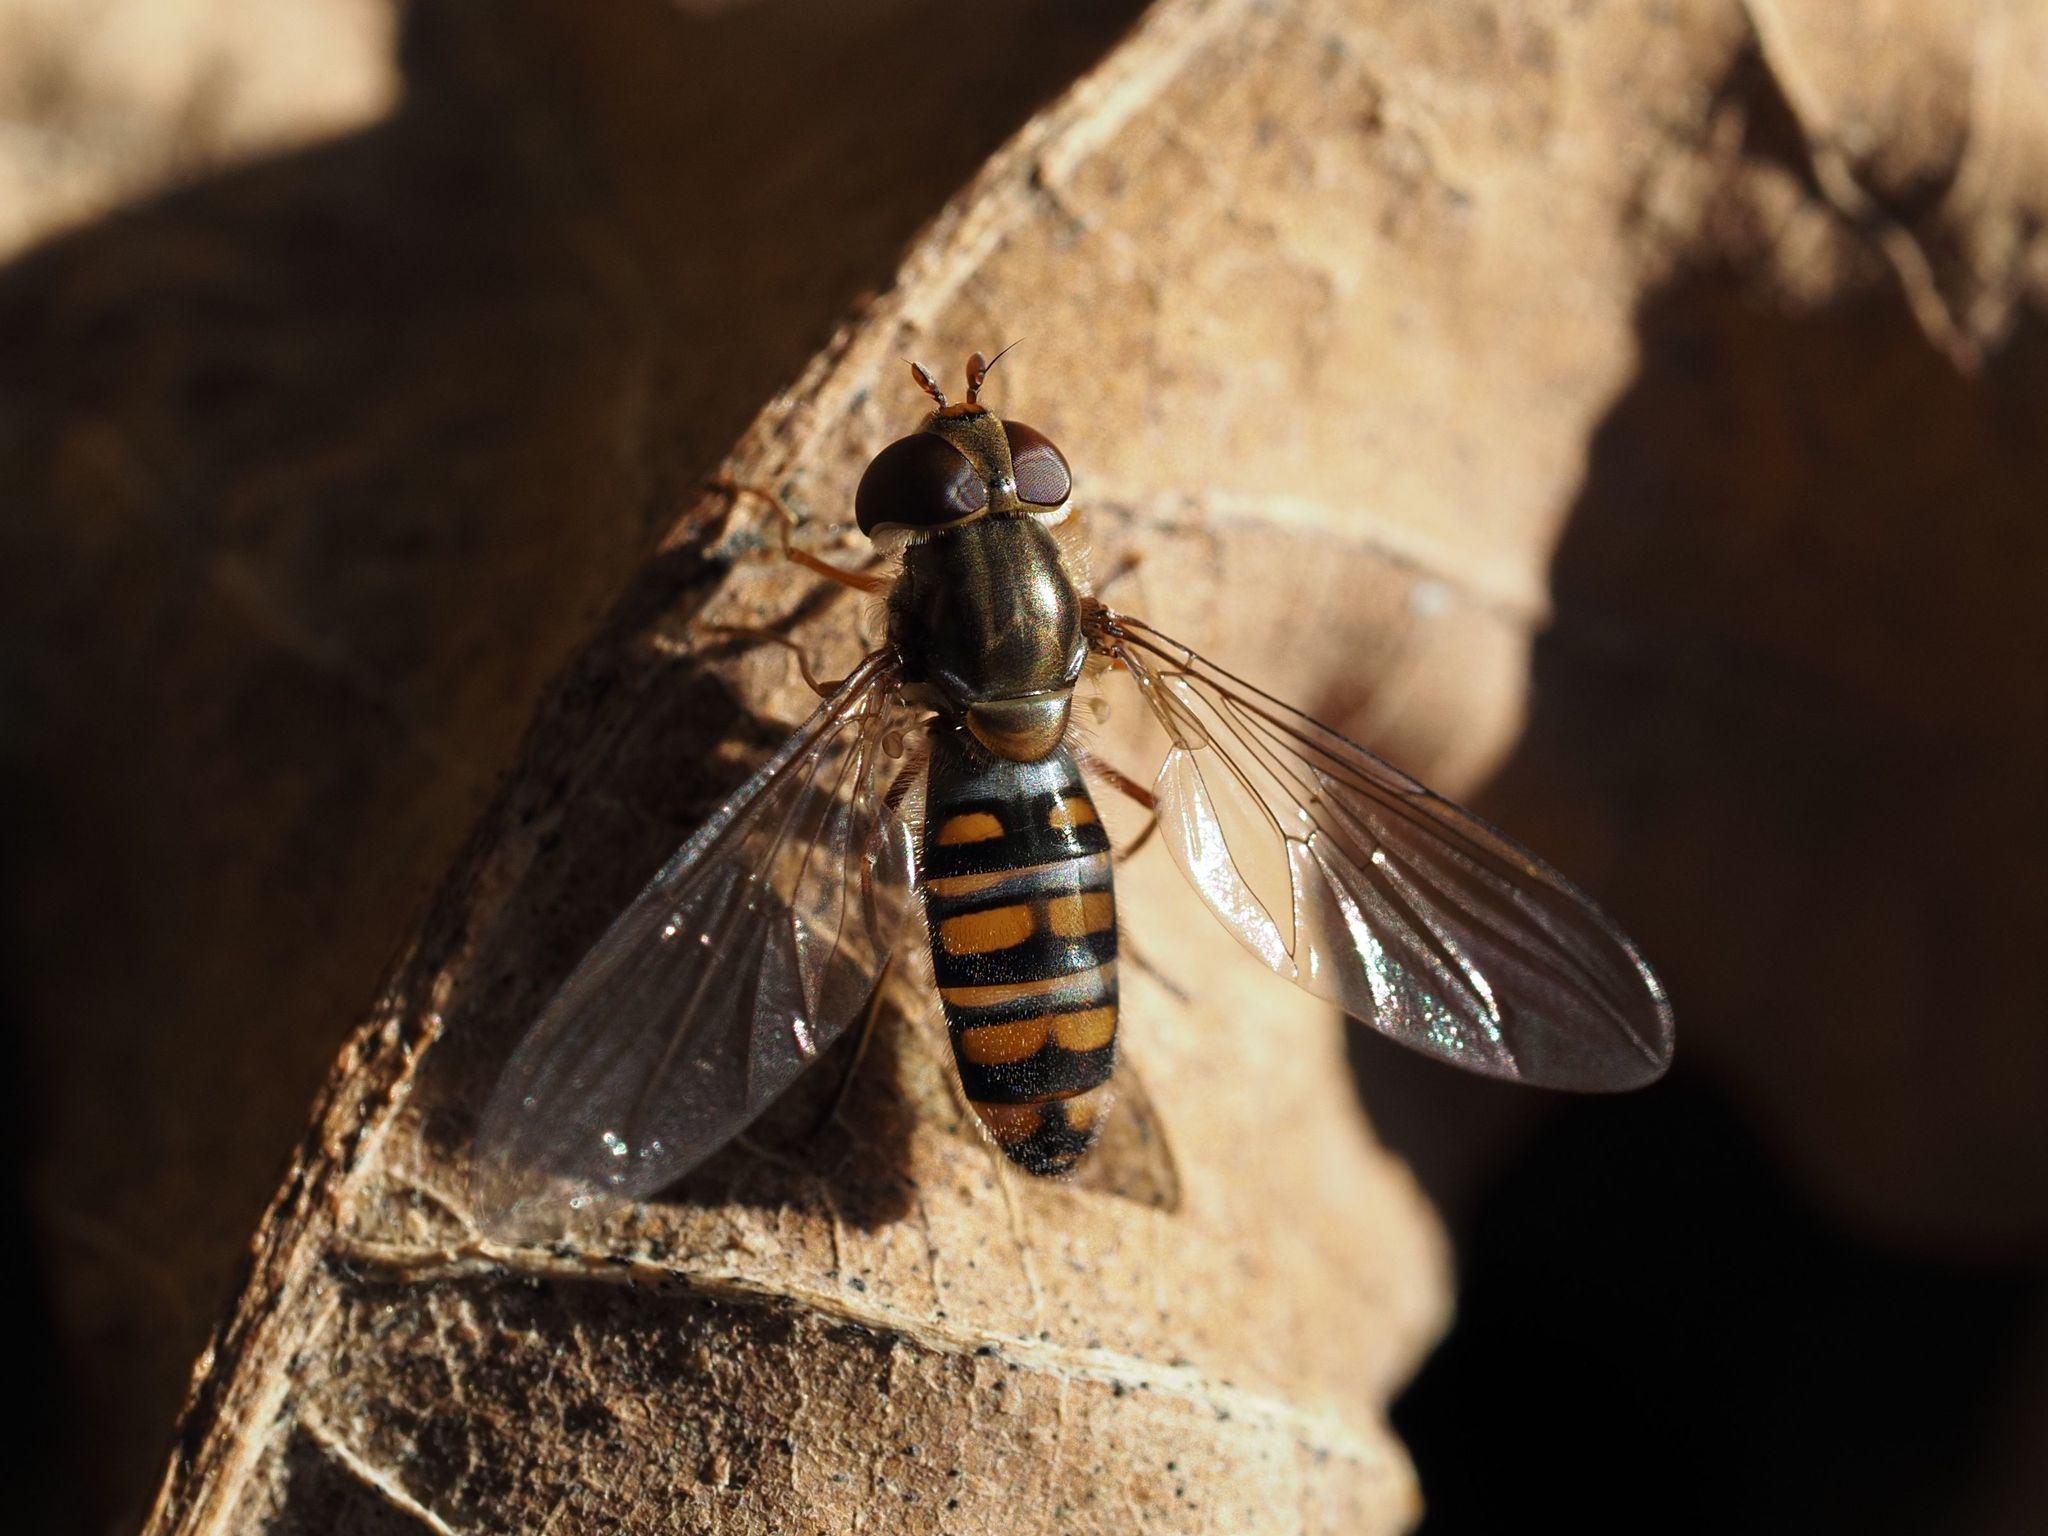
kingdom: Animalia
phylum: Arthropoda
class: Insecta
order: Diptera
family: Syrphidae
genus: Episyrphus
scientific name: Episyrphus balteatus
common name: Marmalade hoverfly
